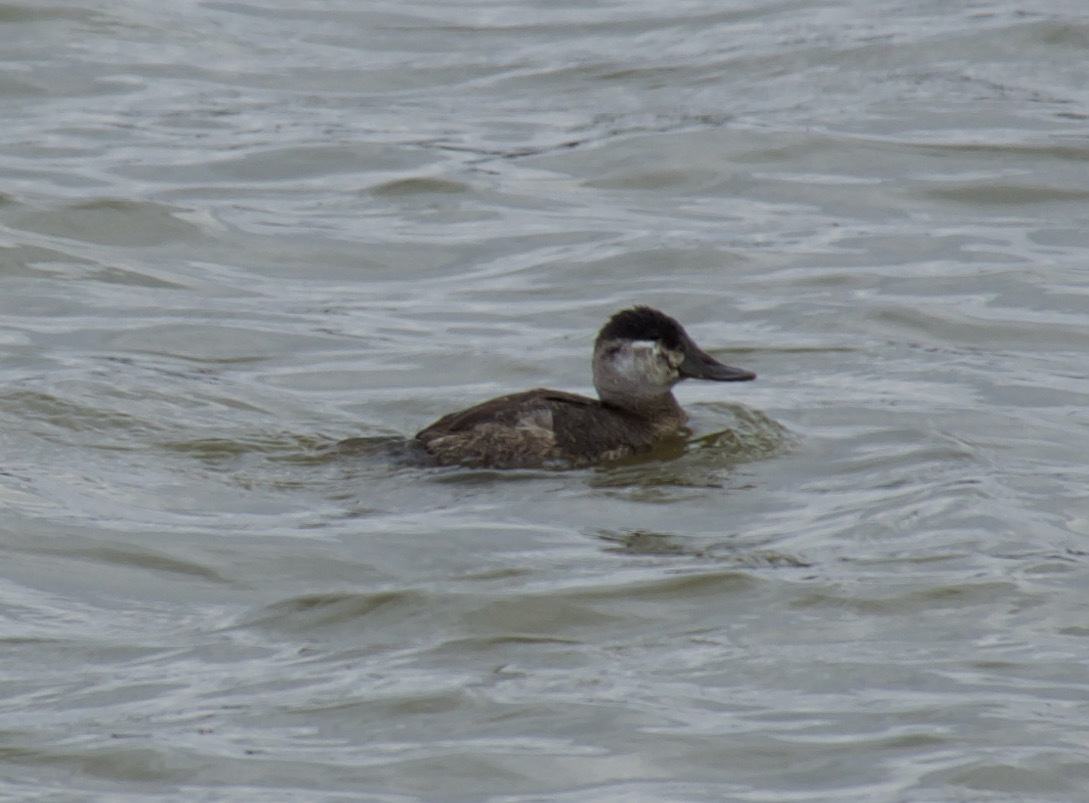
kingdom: Animalia
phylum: Chordata
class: Aves
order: Anseriformes
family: Anatidae
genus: Oxyura
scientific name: Oxyura jamaicensis
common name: Ruddy duck
